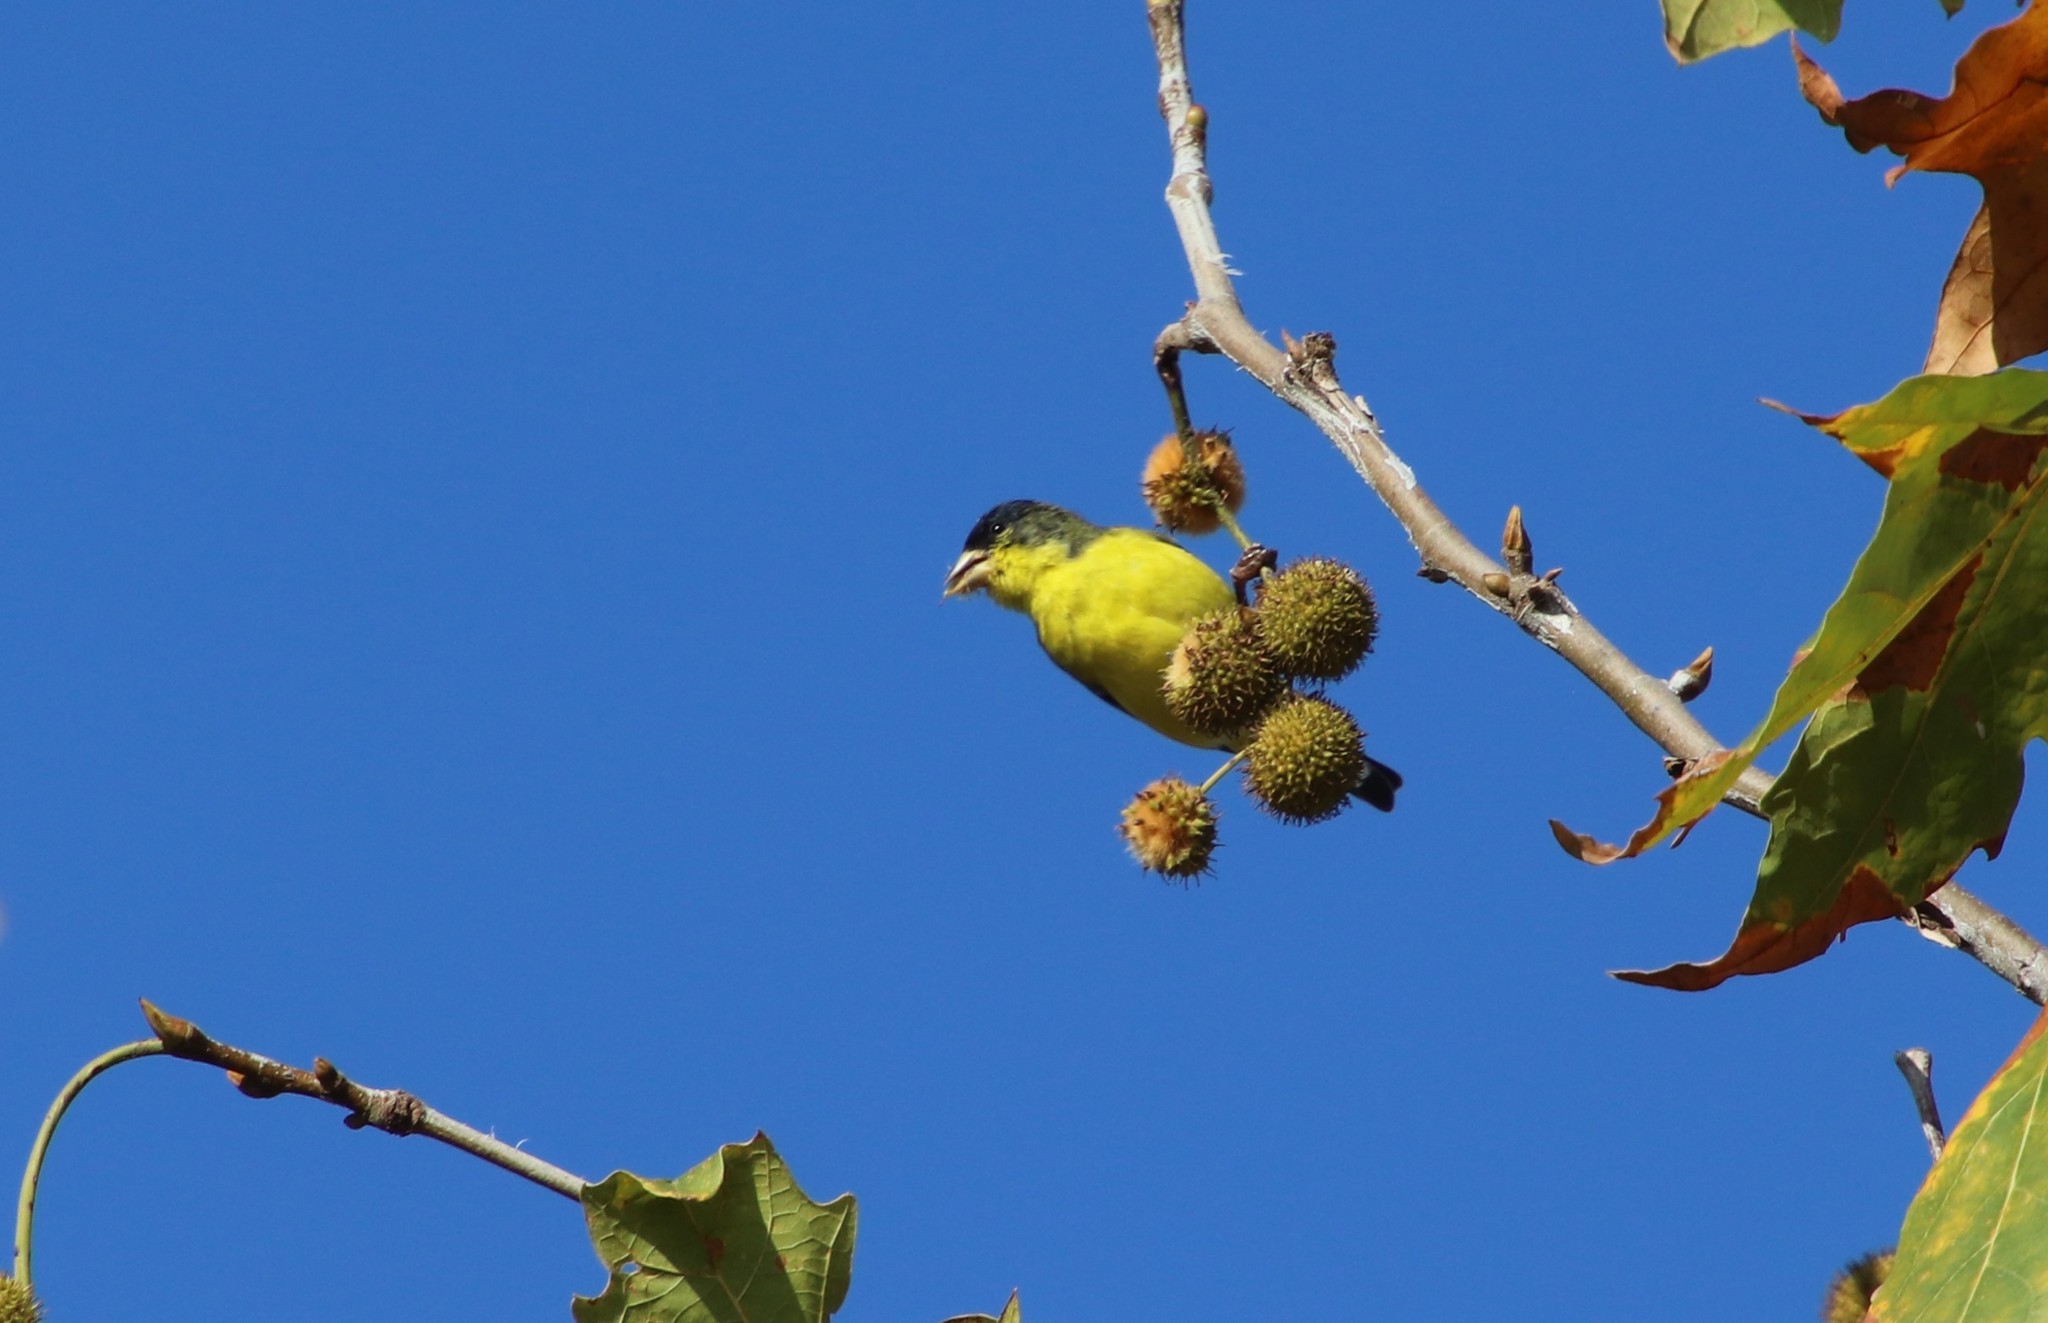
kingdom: Animalia
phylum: Chordata
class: Aves
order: Passeriformes
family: Fringillidae
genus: Spinus
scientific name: Spinus psaltria
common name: Lesser goldfinch
